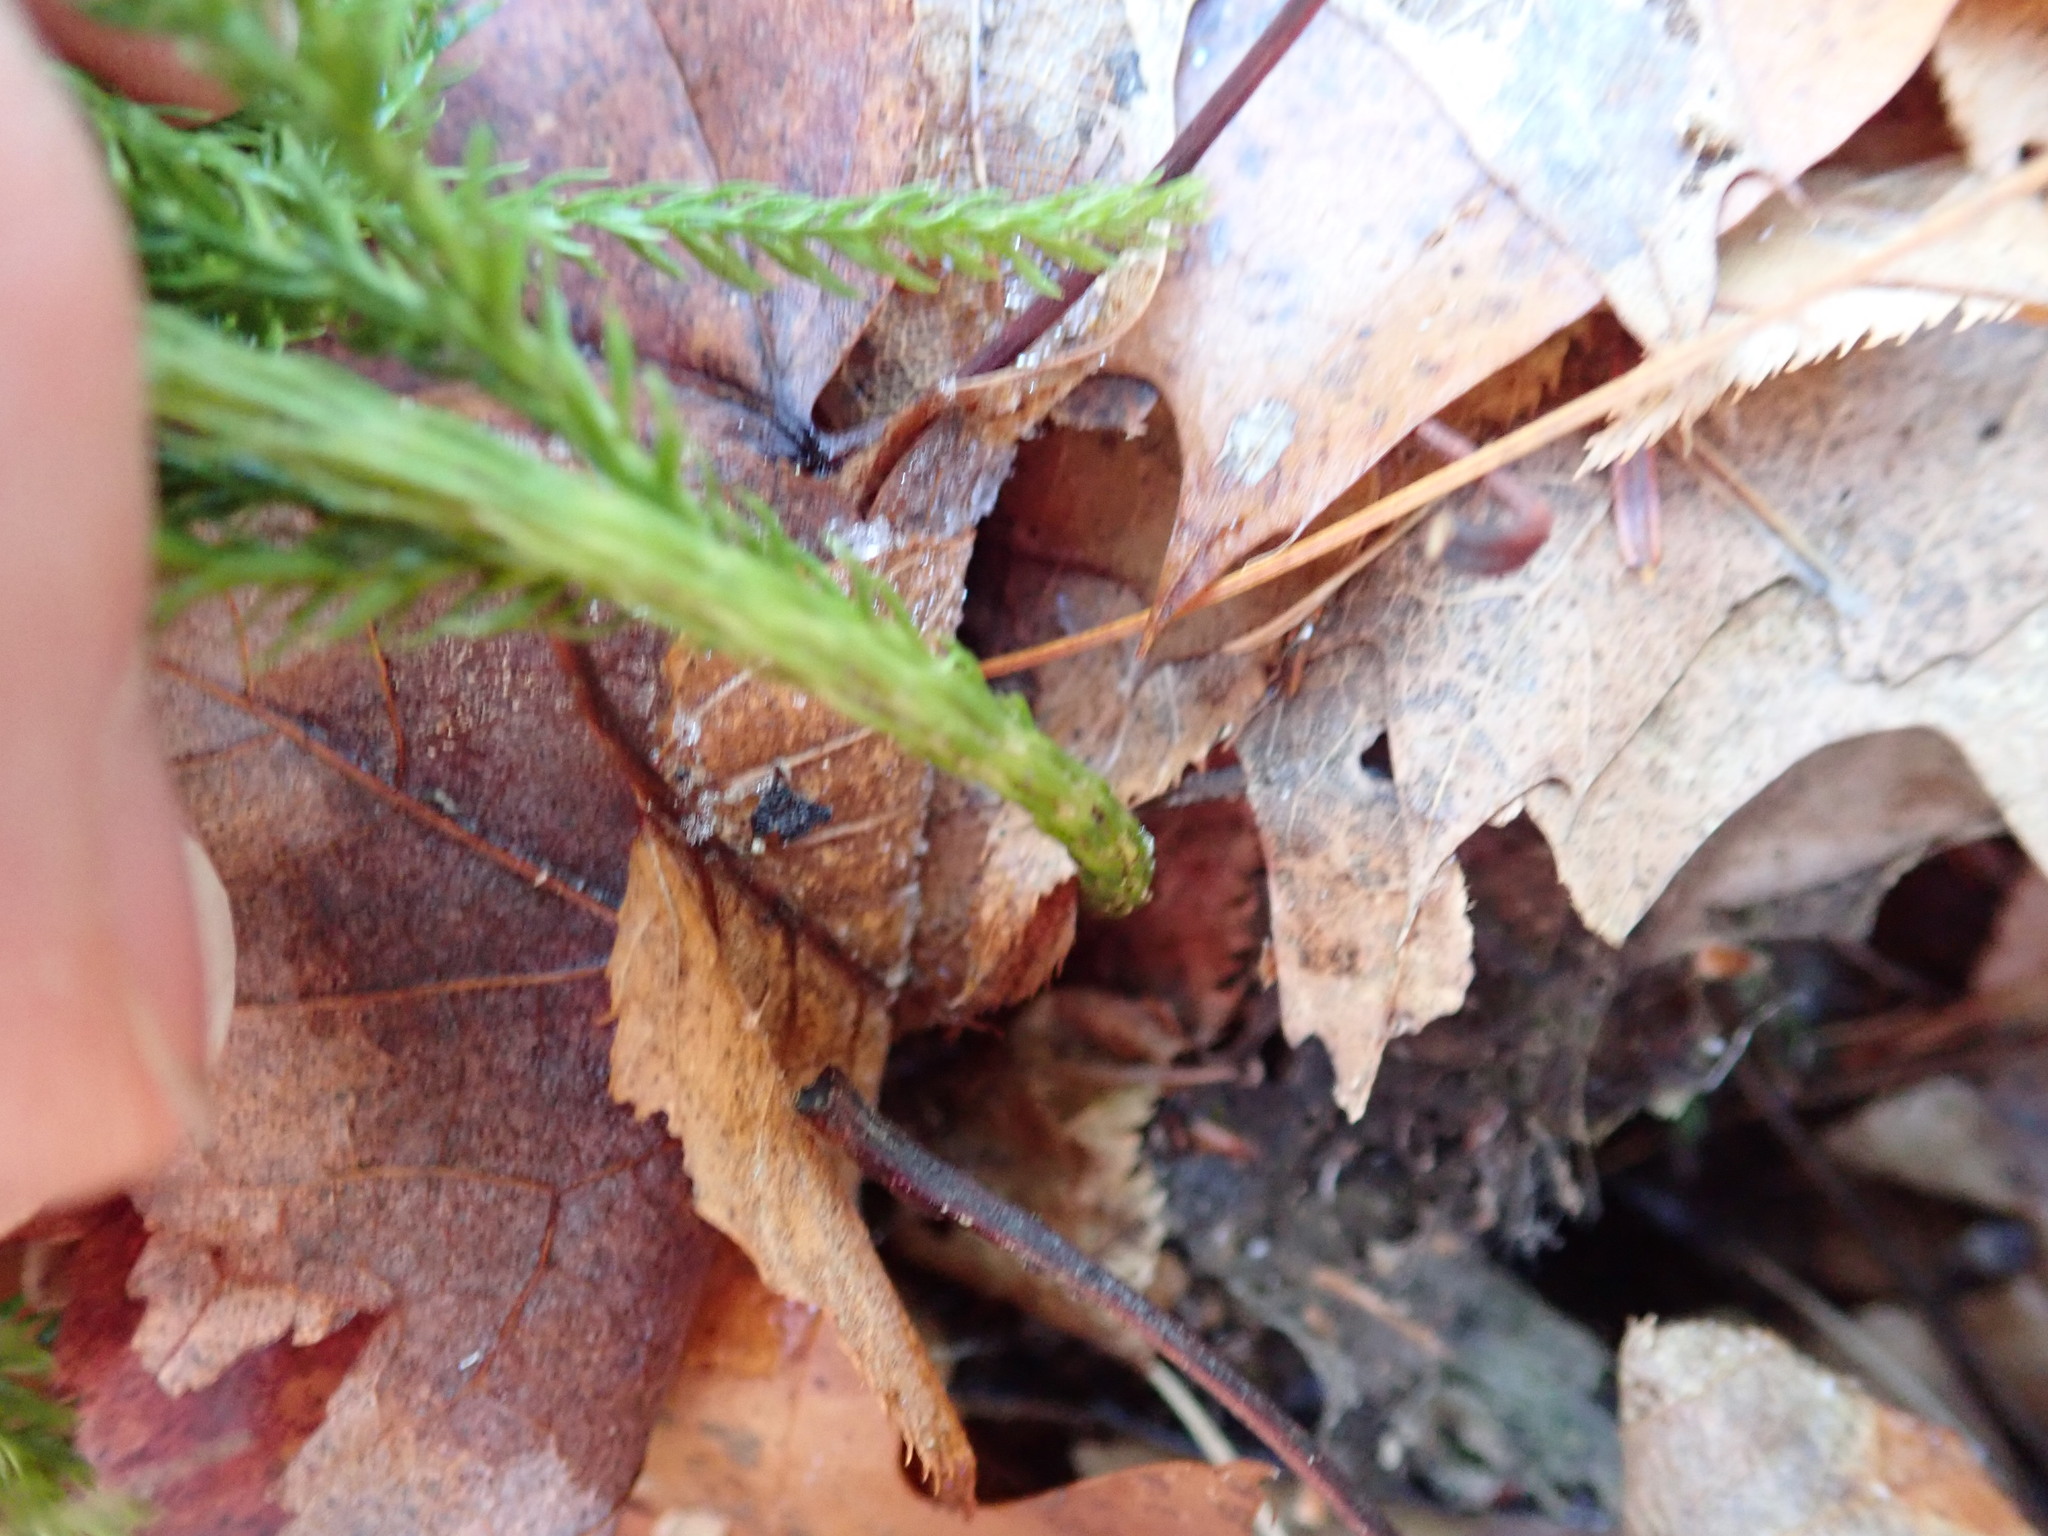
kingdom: Plantae
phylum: Tracheophyta
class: Lycopodiopsida
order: Lycopodiales
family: Lycopodiaceae
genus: Dendrolycopodium
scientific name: Dendrolycopodium obscurum
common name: Common ground-pine
